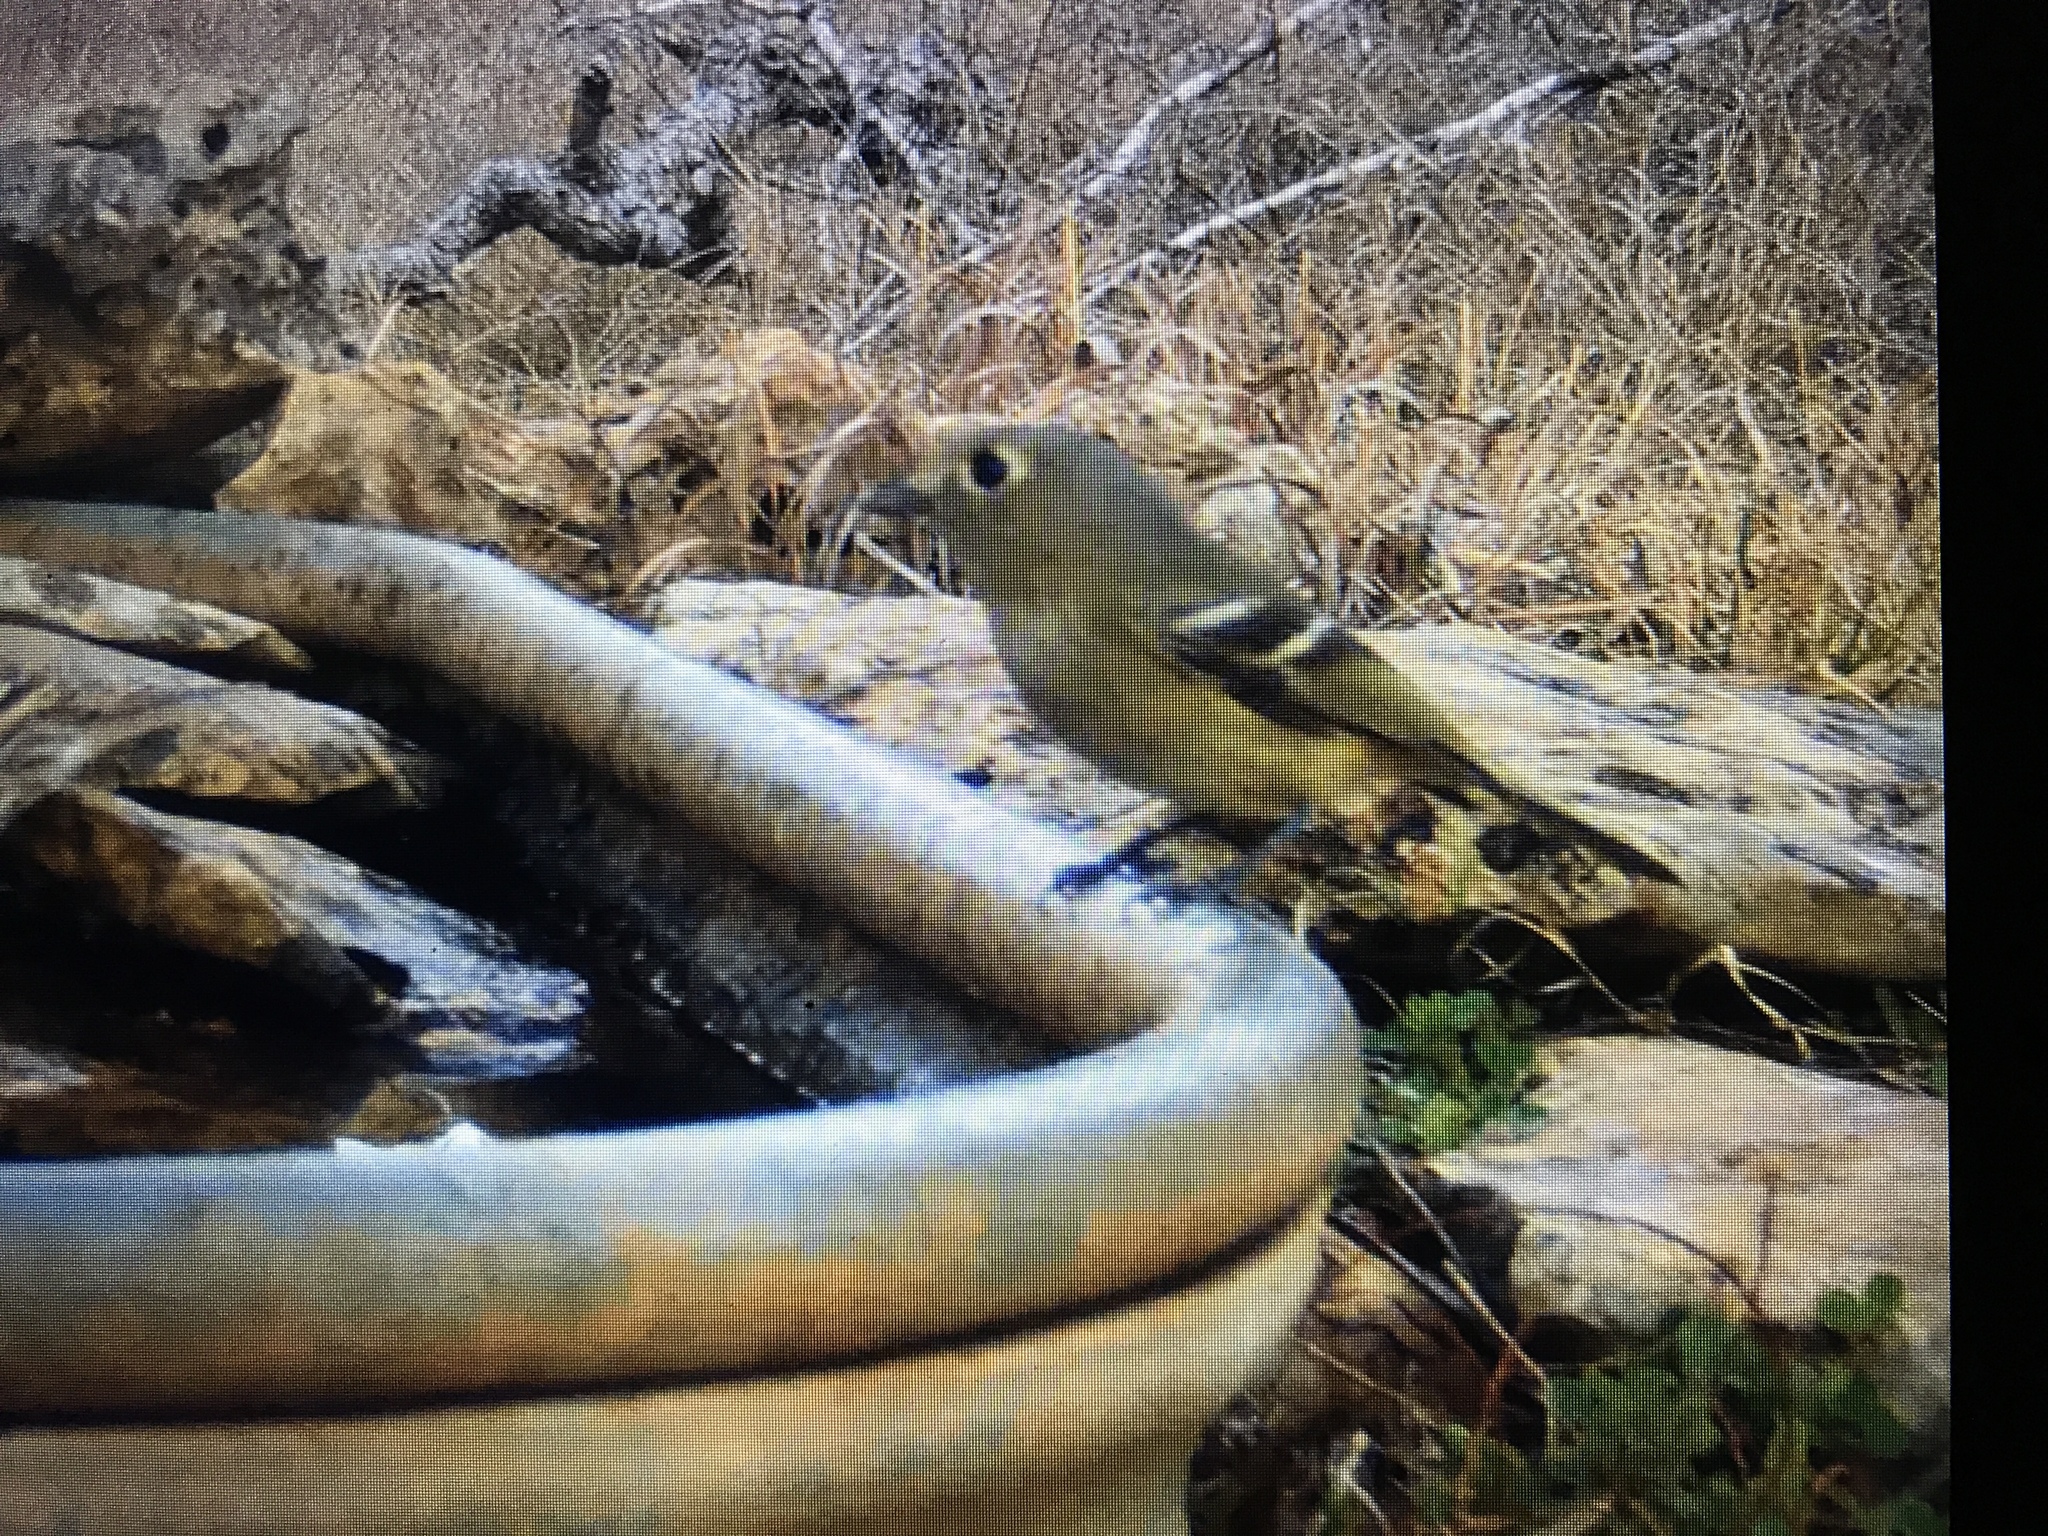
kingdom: Animalia
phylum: Chordata
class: Aves
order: Passeriformes
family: Regulidae
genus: Regulus
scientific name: Regulus calendula
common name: Ruby-crowned kinglet
